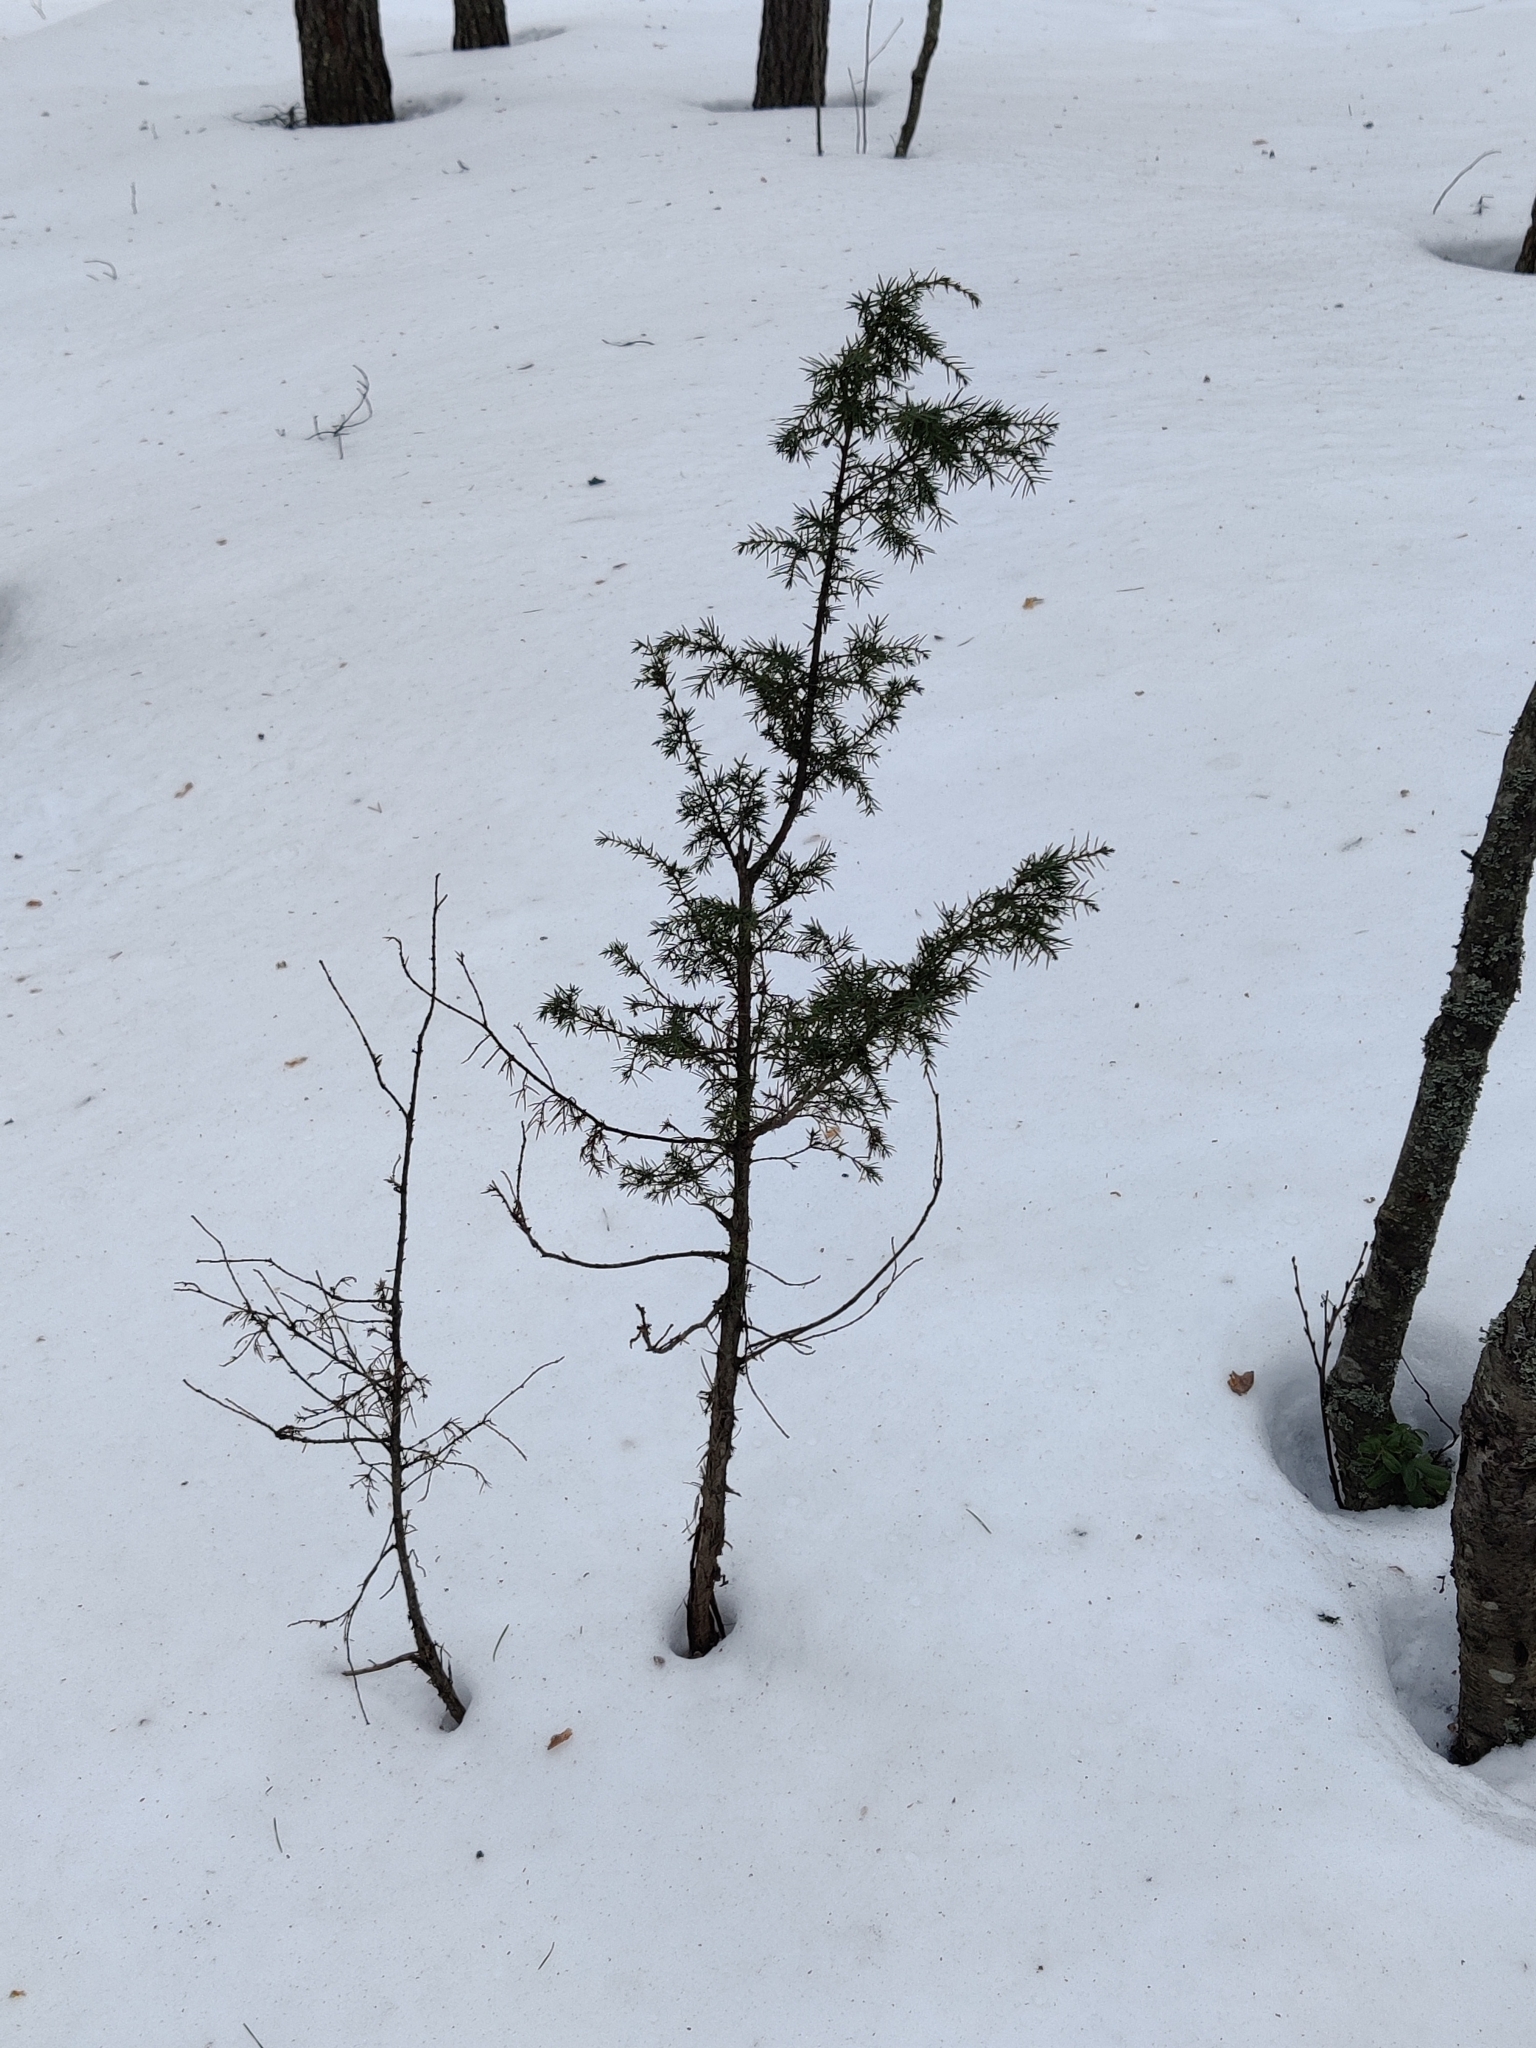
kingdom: Plantae
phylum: Tracheophyta
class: Pinopsida
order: Pinales
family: Cupressaceae
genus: Juniperus
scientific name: Juniperus communis
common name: Common juniper
